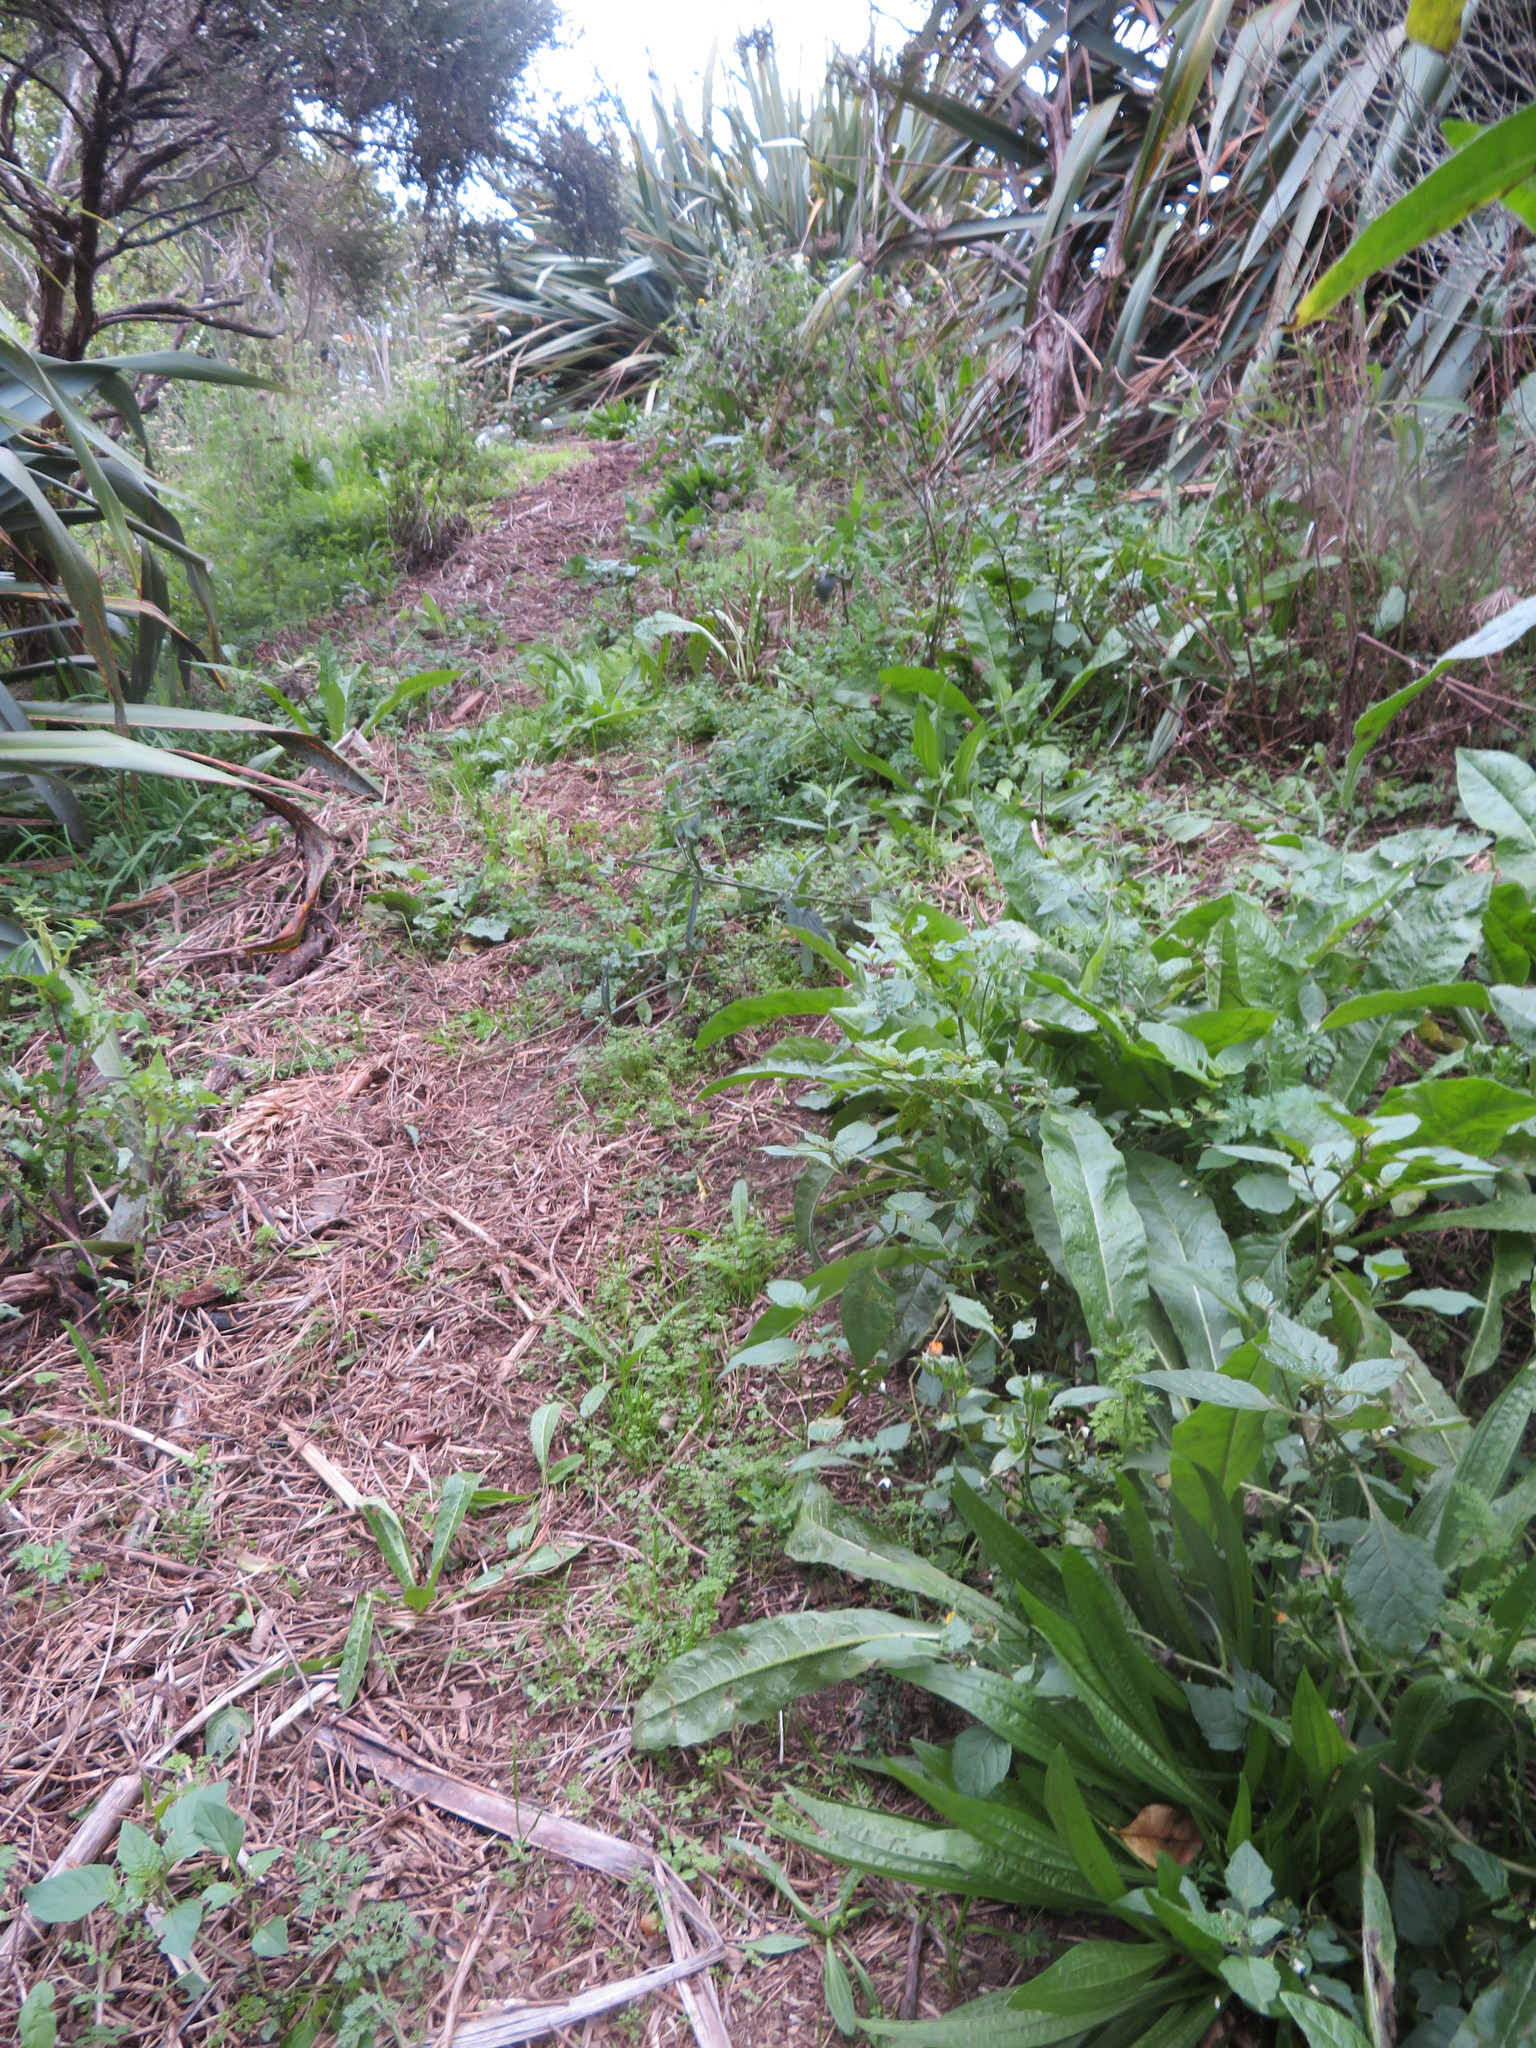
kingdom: Plantae
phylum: Tracheophyta
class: Magnoliopsida
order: Lamiales
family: Plantaginaceae
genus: Plantago
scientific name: Plantago lanceolata
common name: Ribwort plantain
